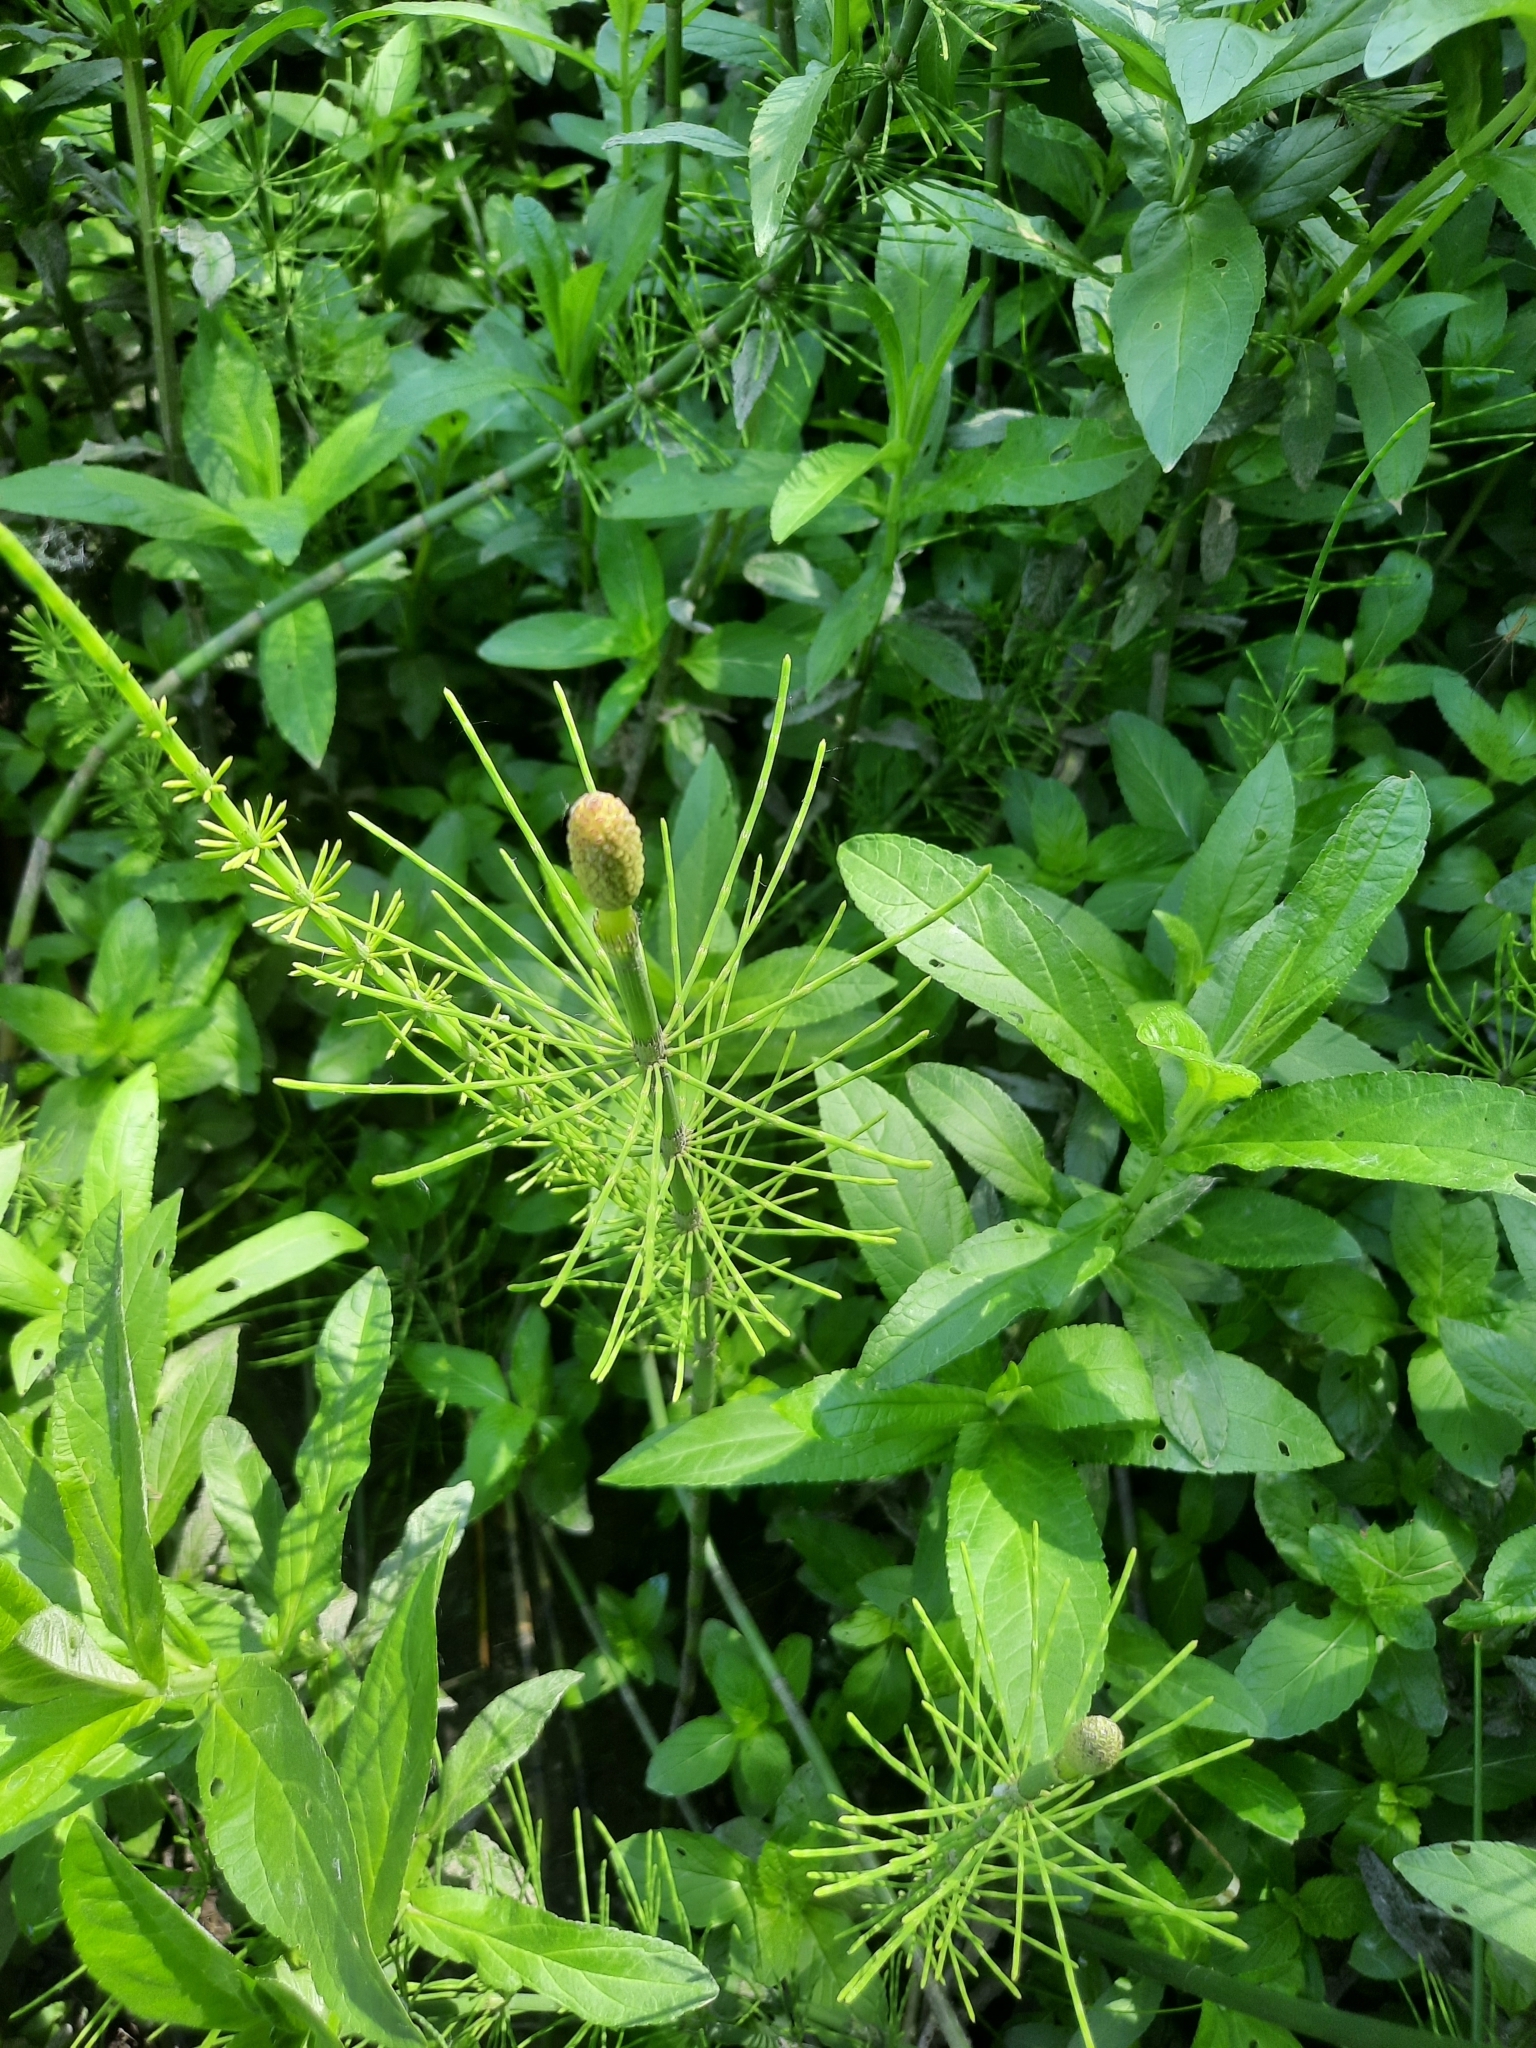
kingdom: Plantae
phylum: Tracheophyta
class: Polypodiopsida
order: Equisetales
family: Equisetaceae
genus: Equisetum
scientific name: Equisetum fluviatile
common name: Water horsetail
